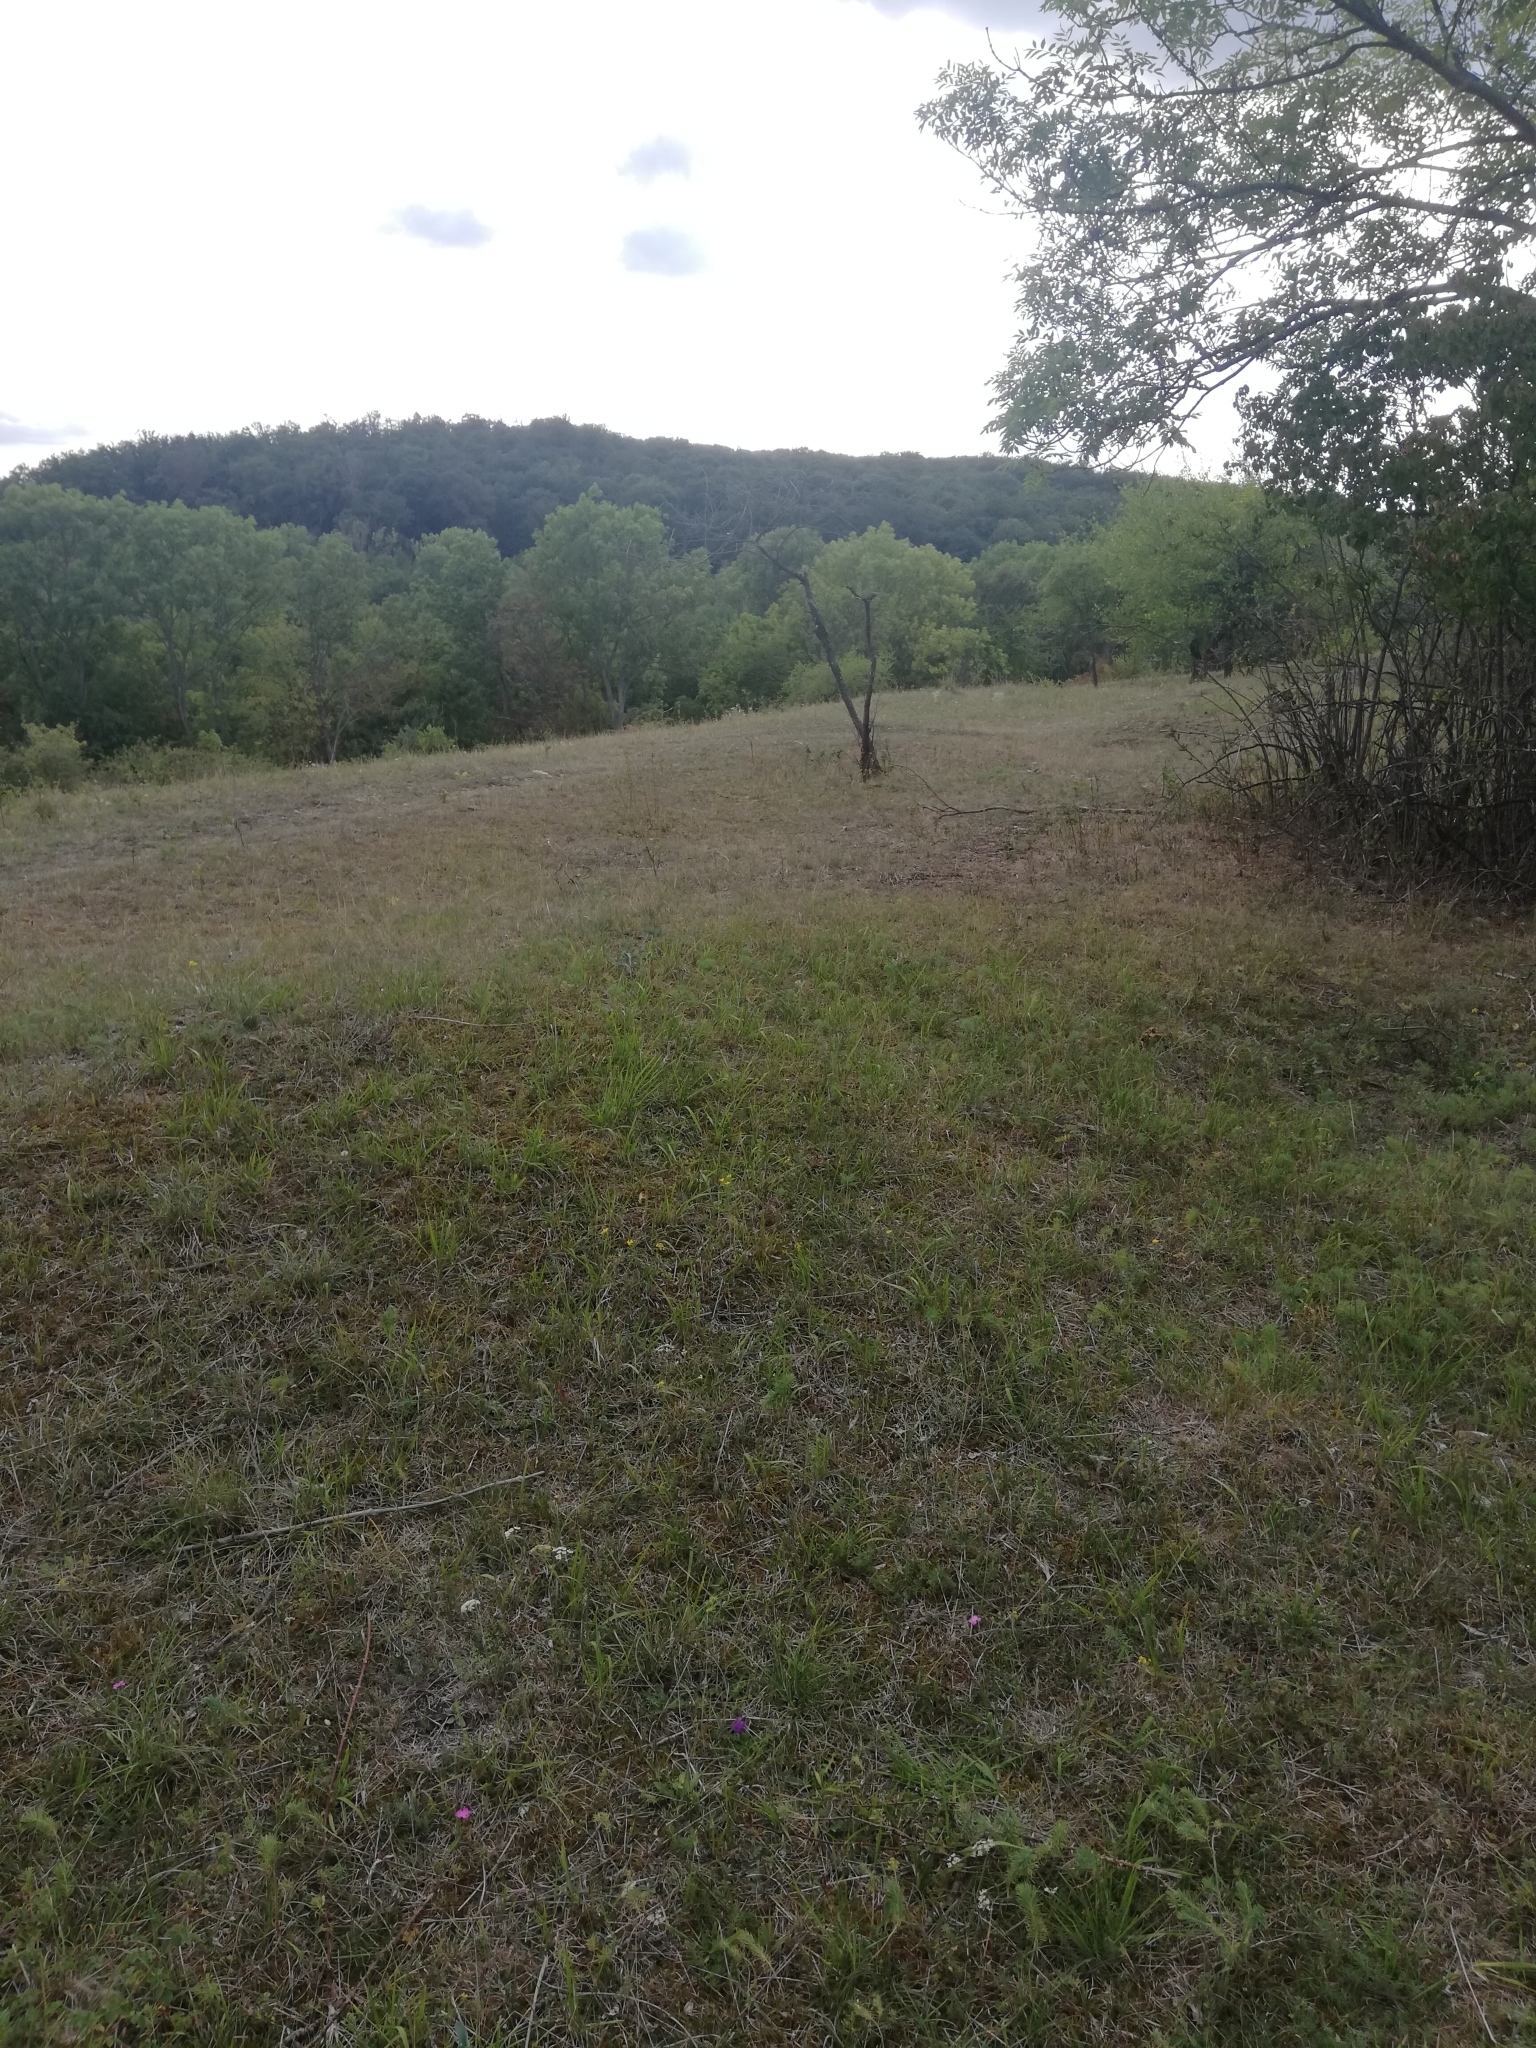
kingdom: Plantae
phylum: Tracheophyta
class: Magnoliopsida
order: Asterales
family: Asteraceae
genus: Cirsium
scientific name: Cirsium acaulon
